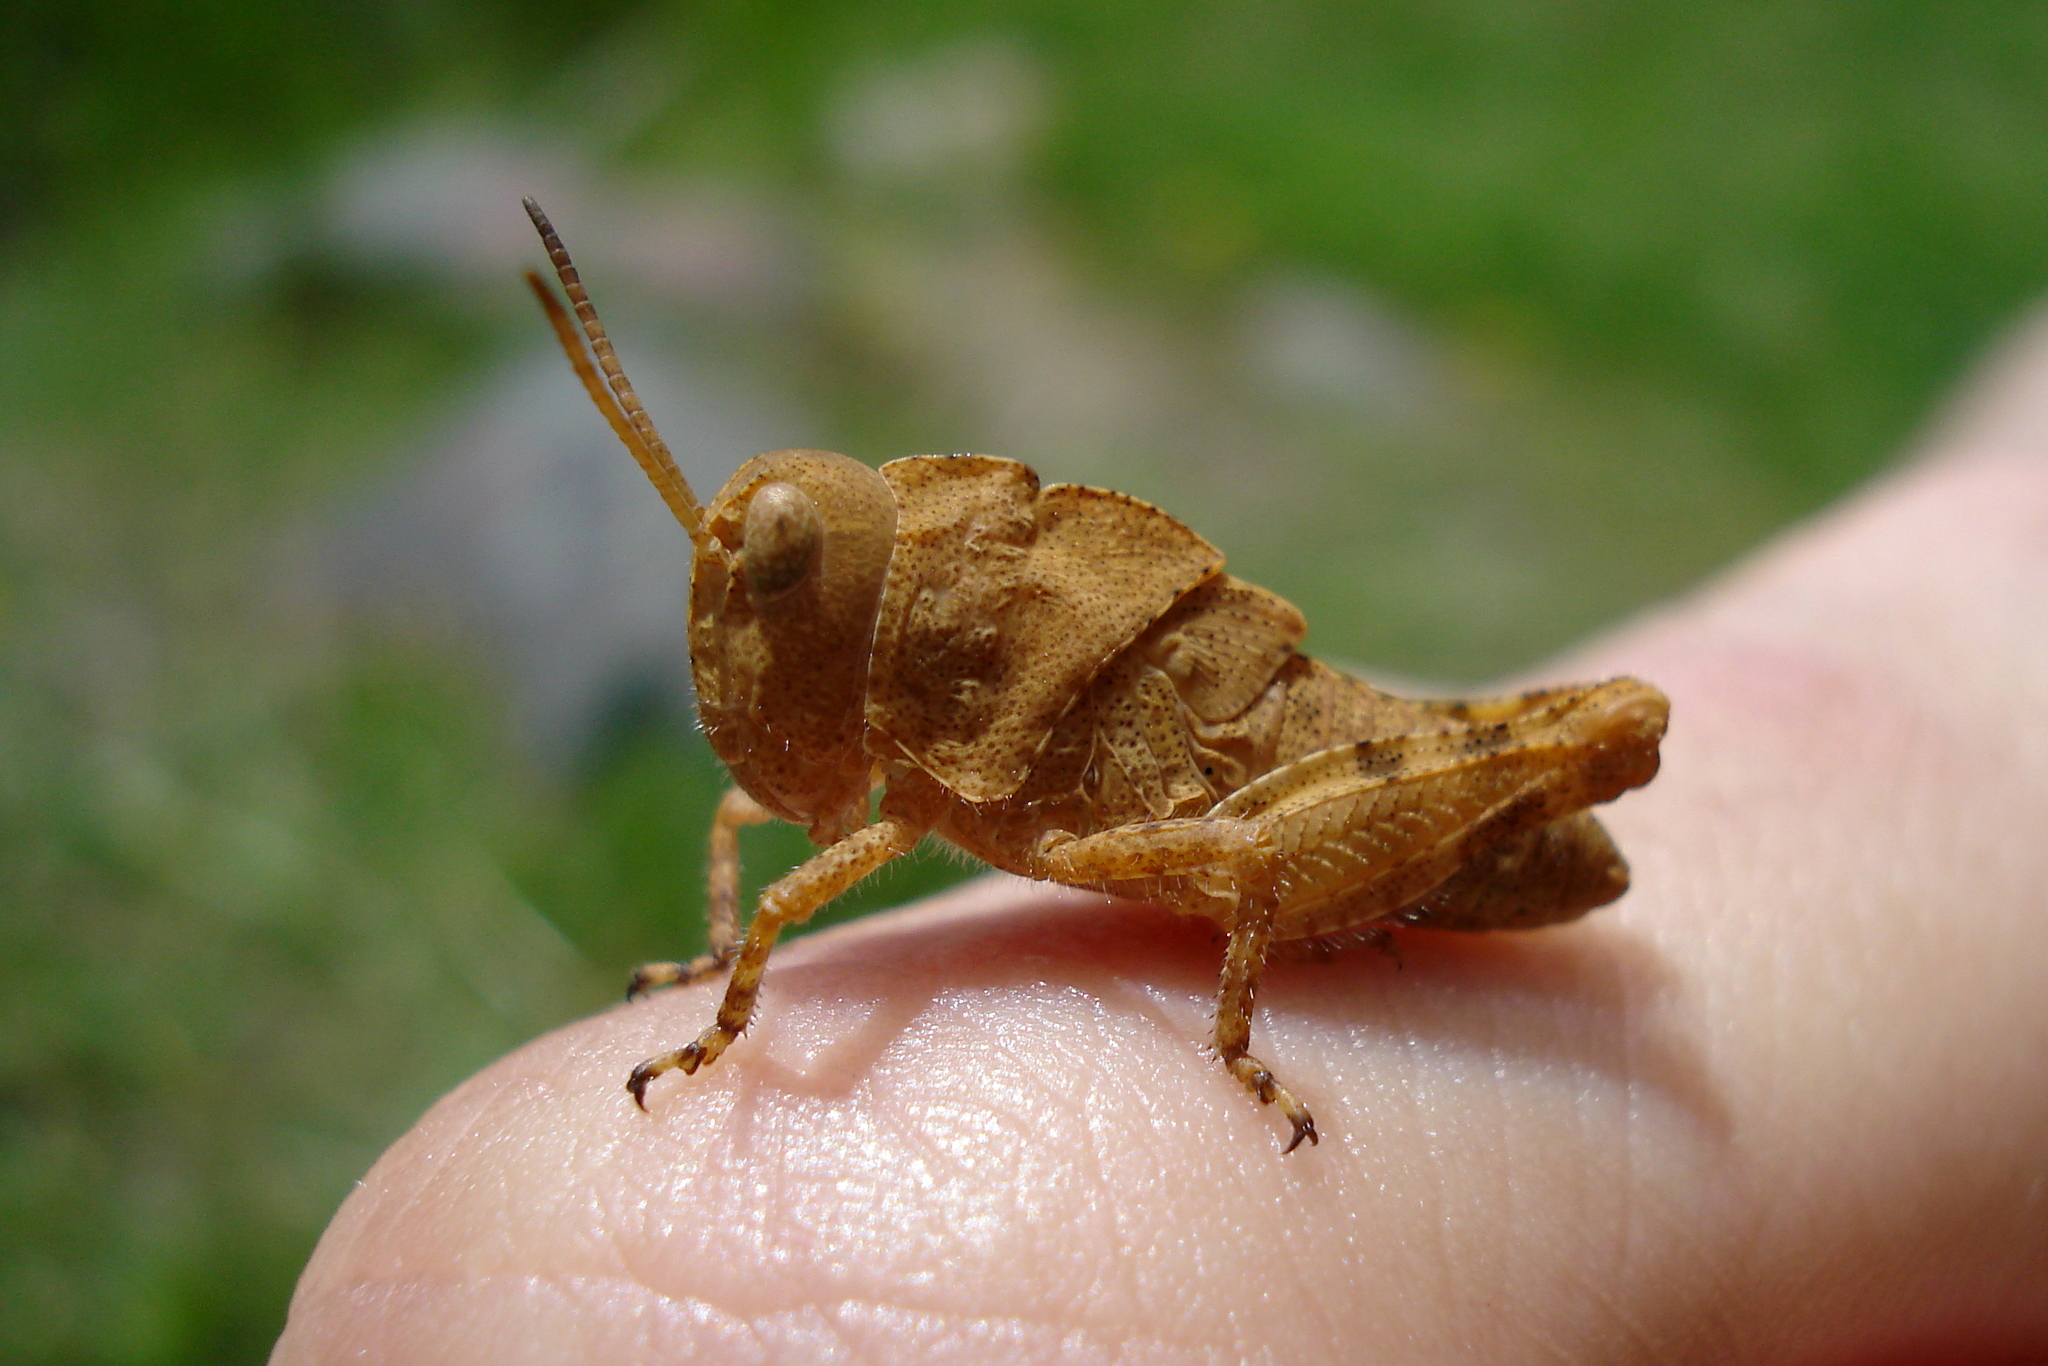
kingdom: Animalia
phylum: Arthropoda
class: Insecta
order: Orthoptera
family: Acrididae
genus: Dissosteira
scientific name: Dissosteira carolina
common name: Carolina grasshopper
